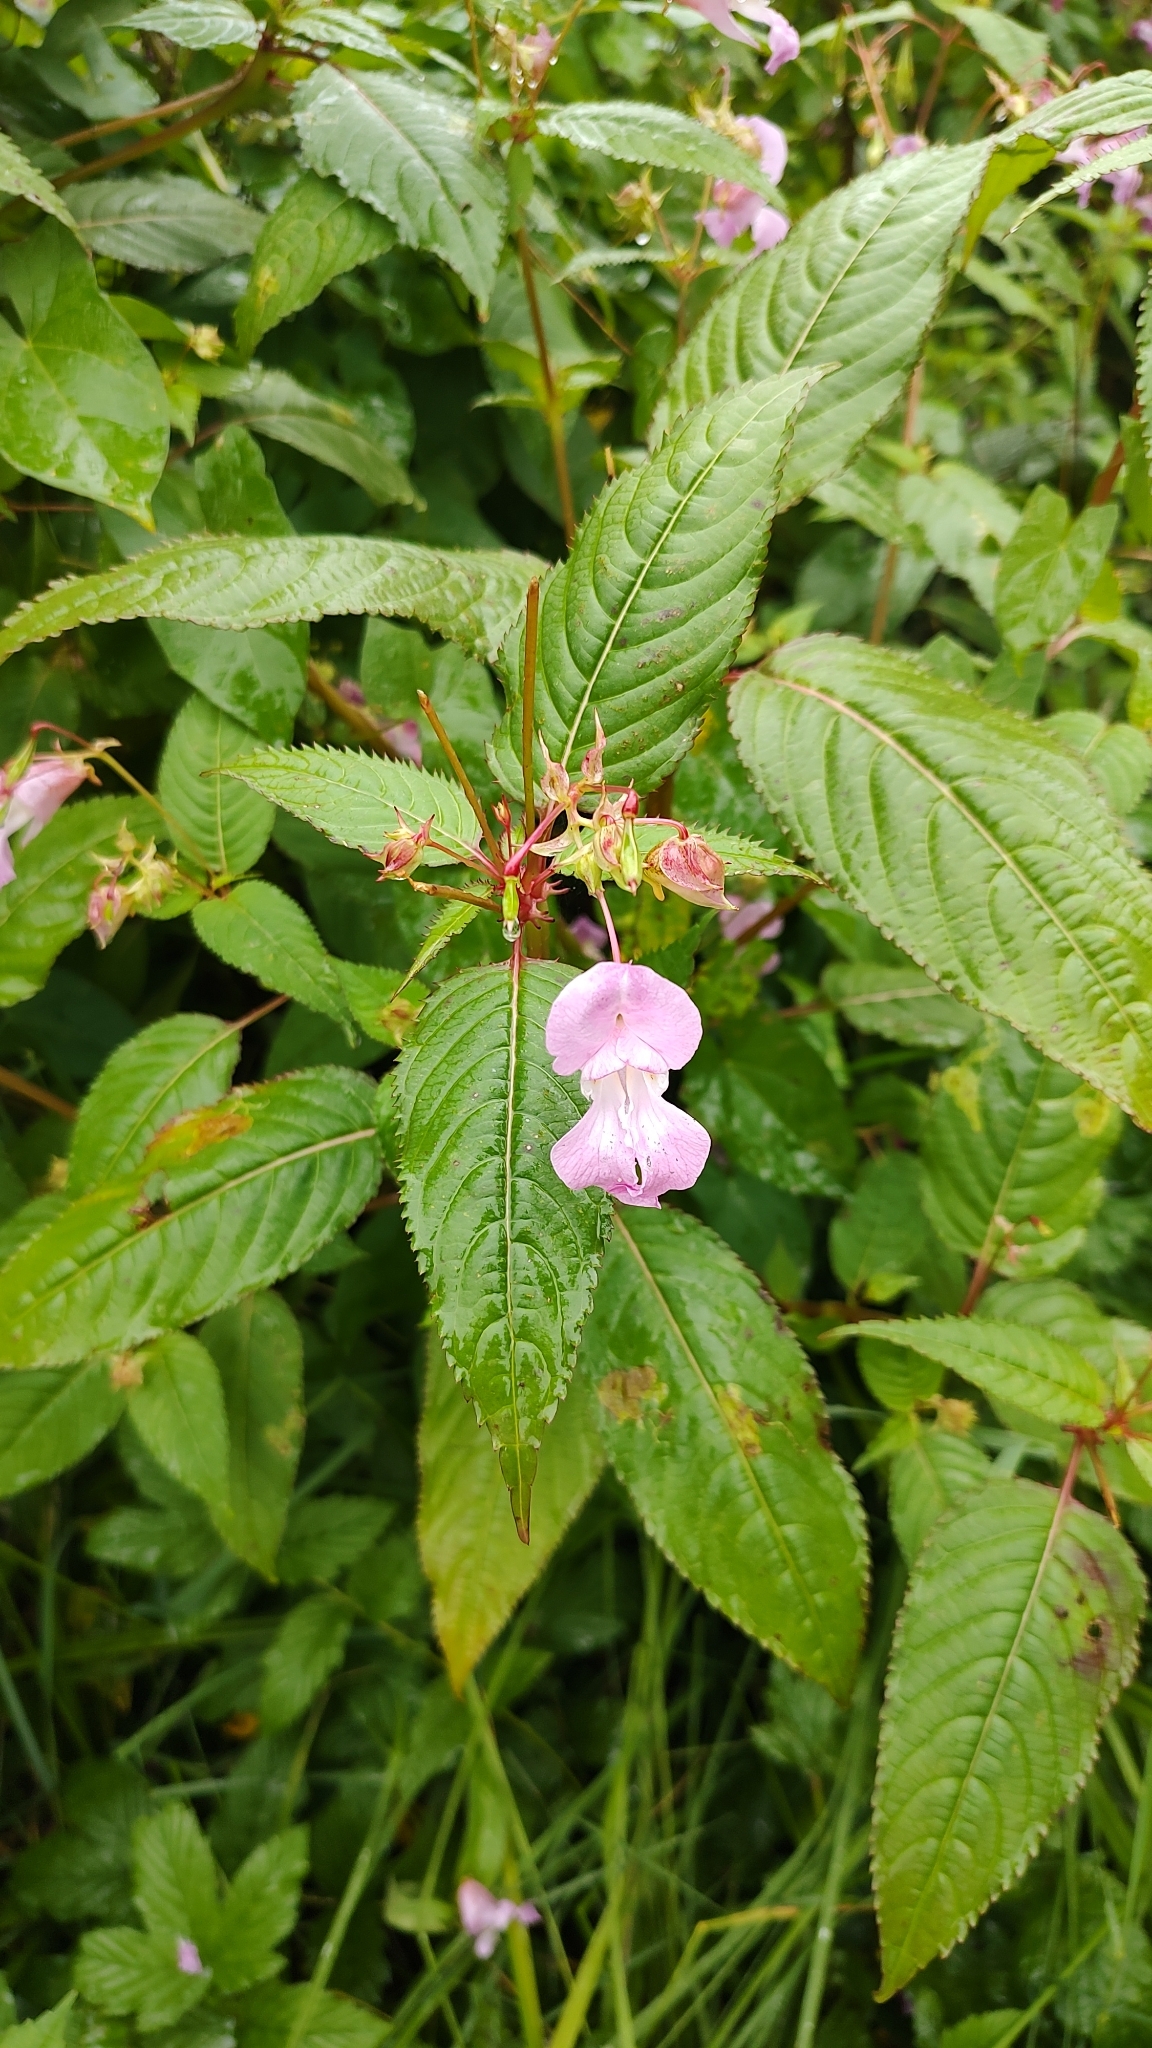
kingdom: Plantae
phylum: Tracheophyta
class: Magnoliopsida
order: Ericales
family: Balsaminaceae
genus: Impatiens
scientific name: Impatiens glandulifera
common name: Himalayan balsam
